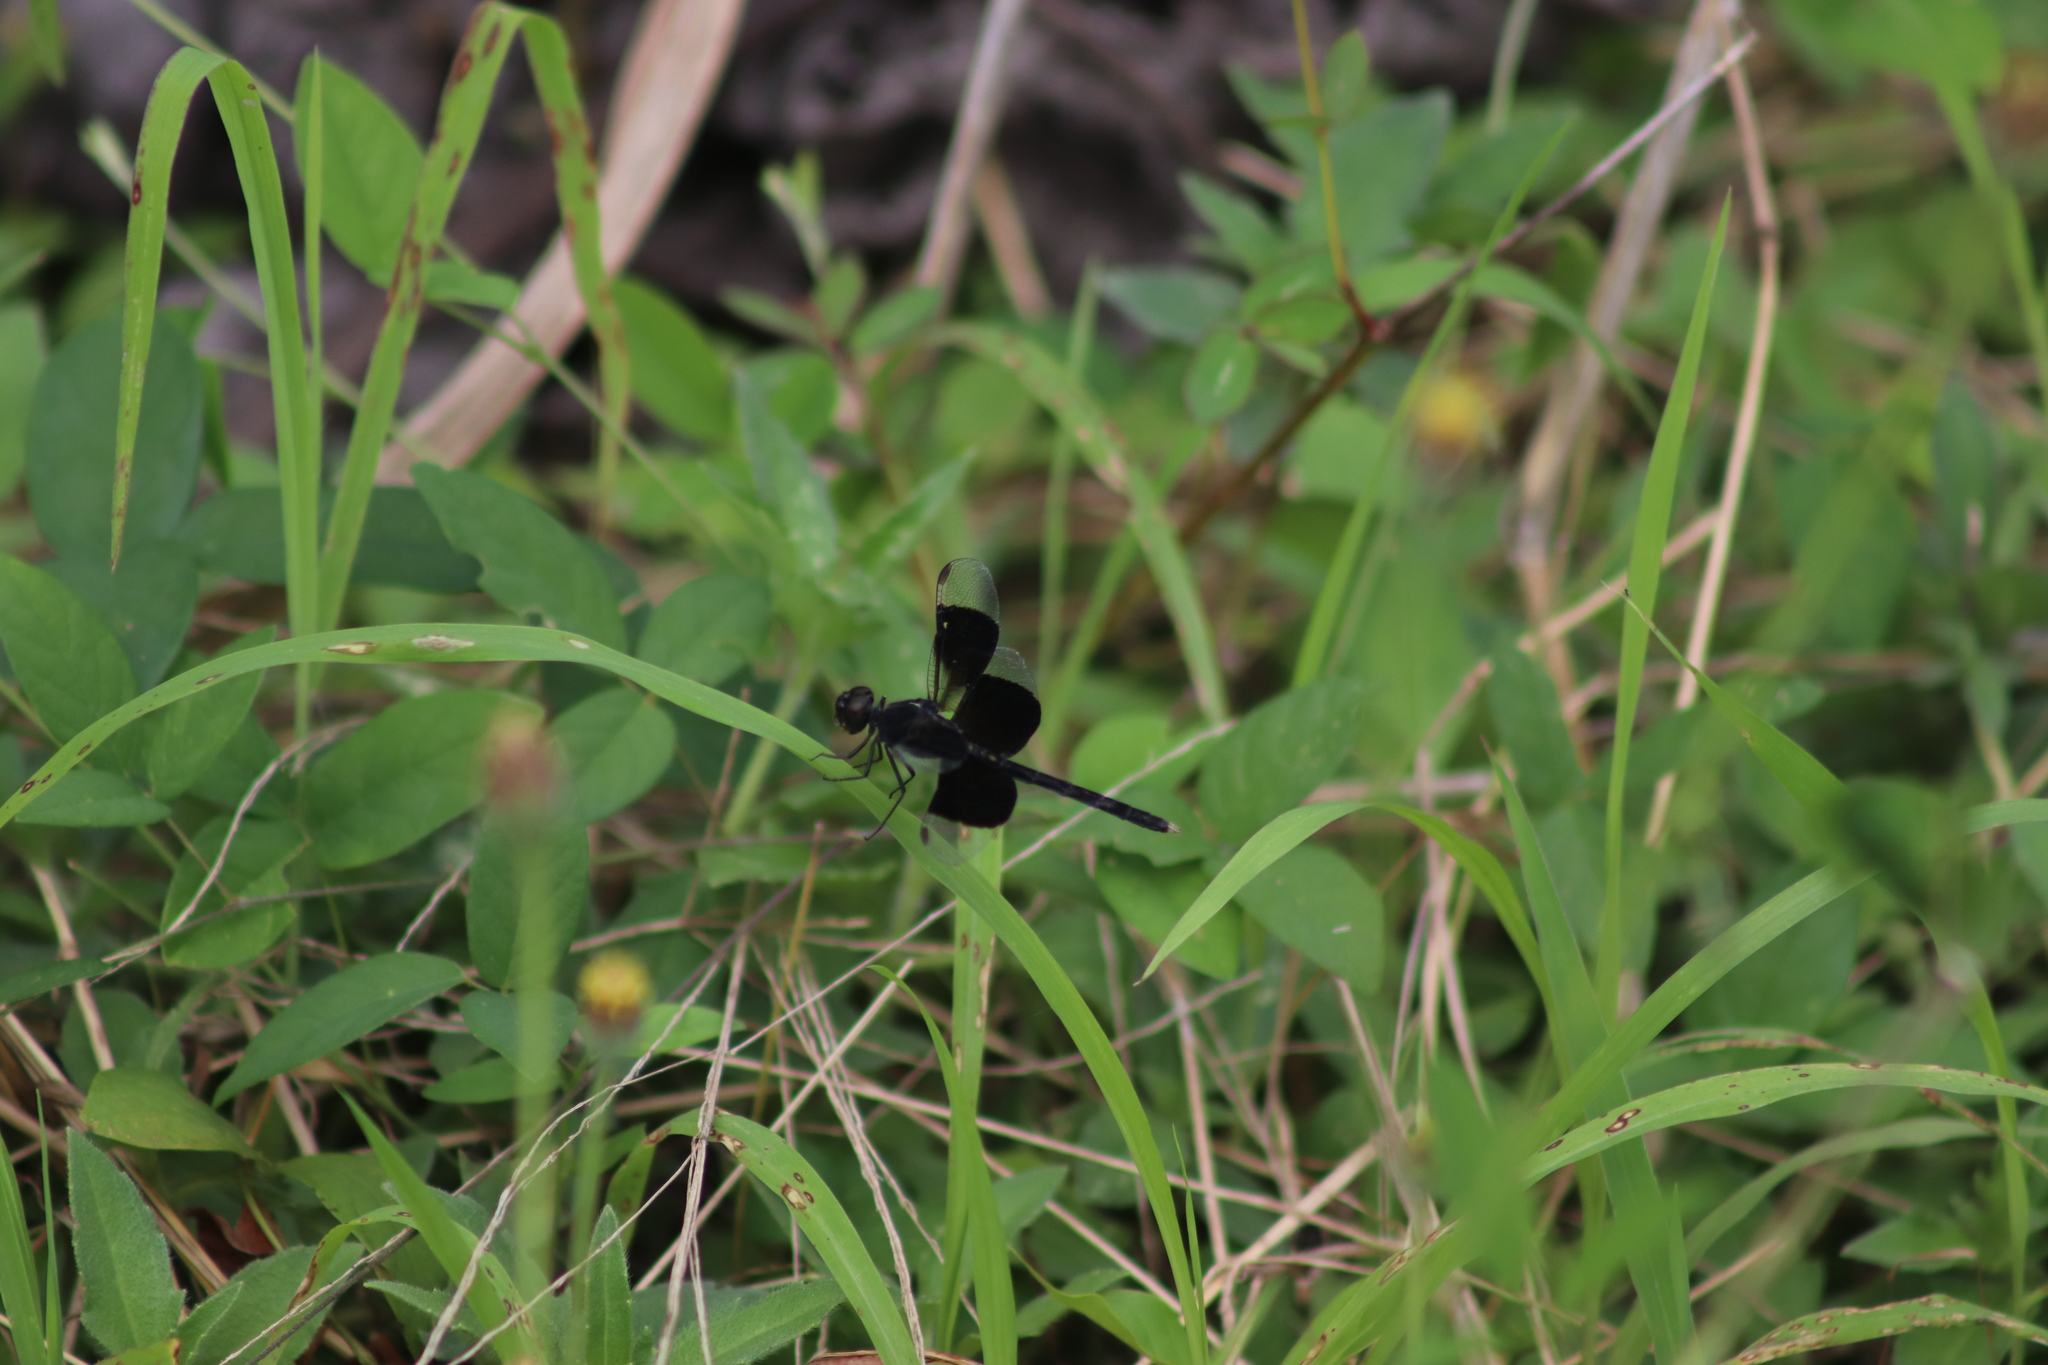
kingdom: Animalia
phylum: Arthropoda
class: Insecta
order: Odonata
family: Libellulidae
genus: Erythrodiplax
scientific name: Erythrodiplax funerea
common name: Black-winged dragonlet
